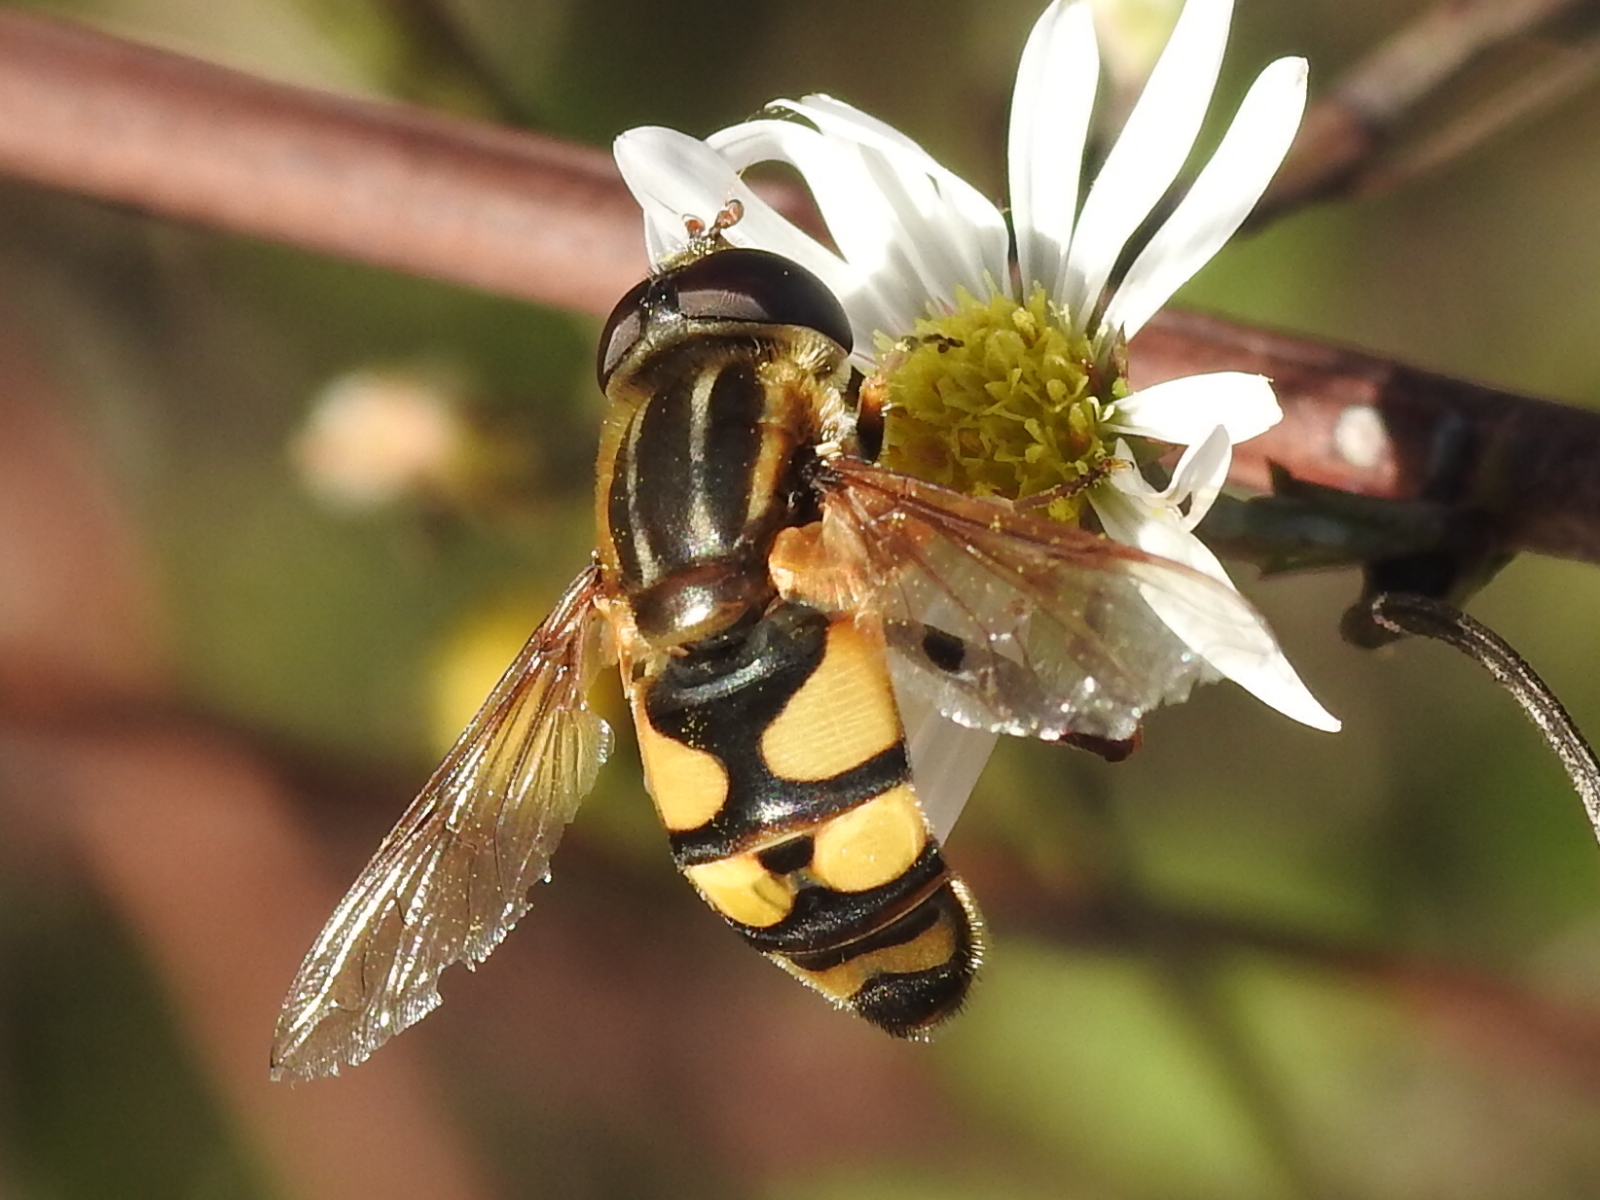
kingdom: Animalia
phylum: Arthropoda
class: Insecta
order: Diptera
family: Syrphidae
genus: Helophilus
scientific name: Helophilus fasciatus
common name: Narrow-headed marsh fly
